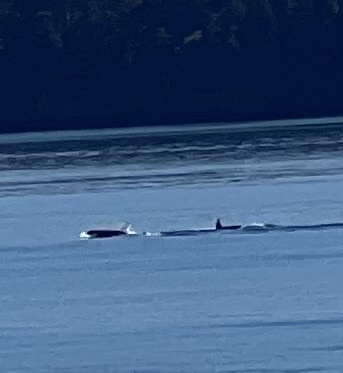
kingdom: Animalia
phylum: Chordata
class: Mammalia
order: Cetacea
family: Delphinidae
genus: Orcinus
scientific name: Orcinus orca
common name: Killer whale
